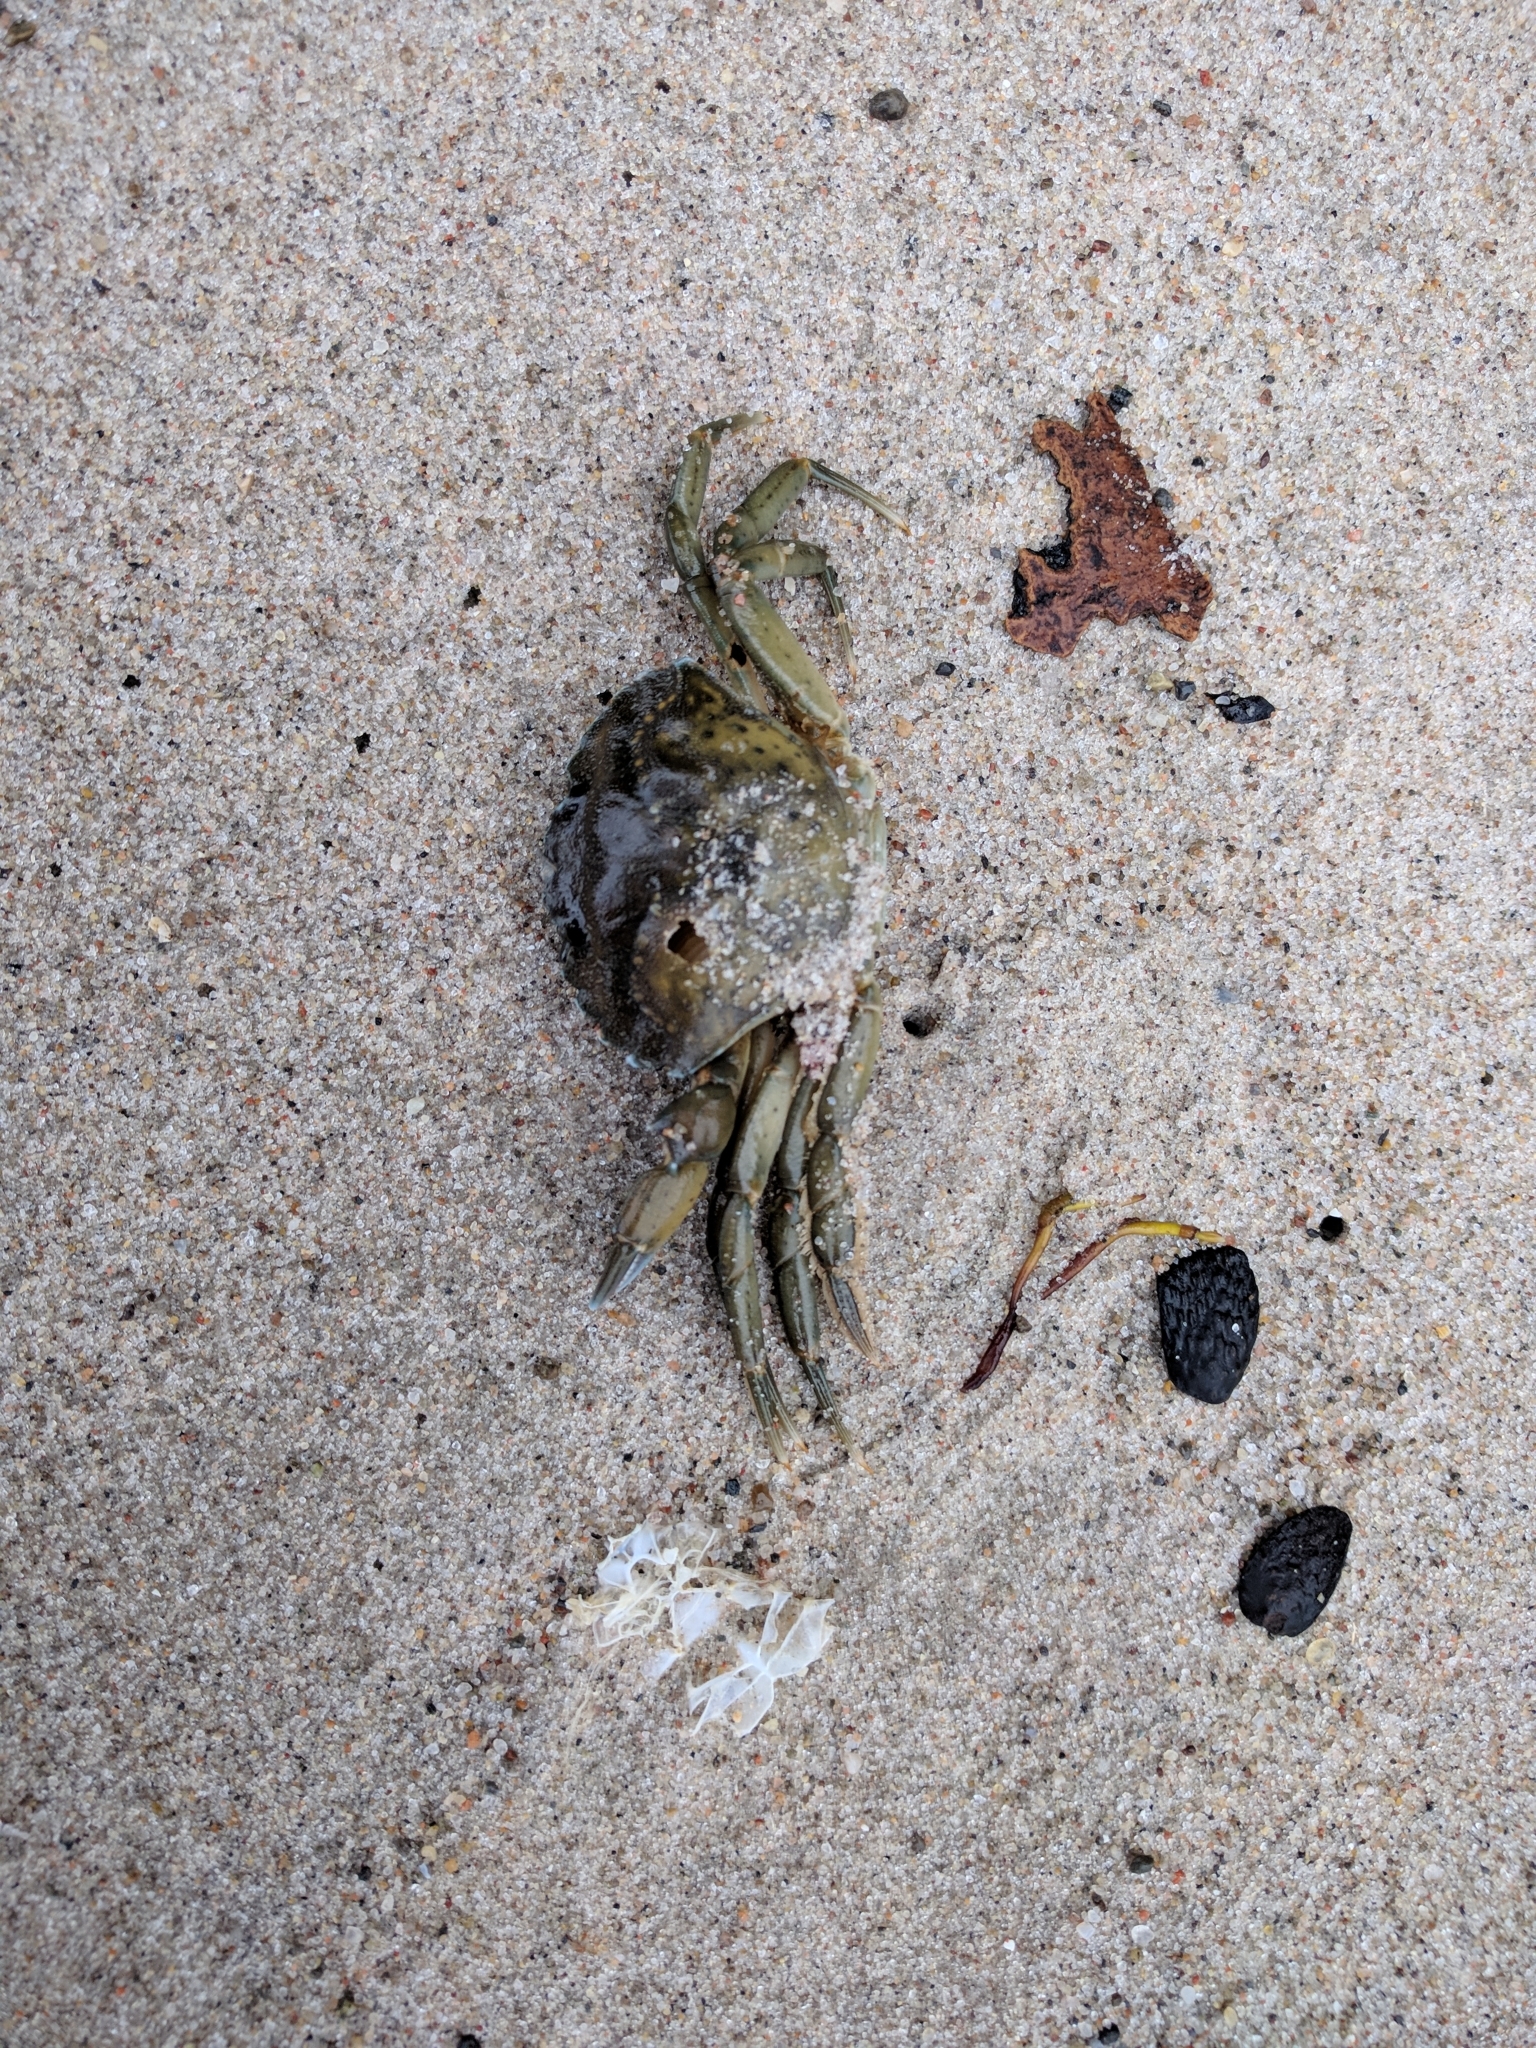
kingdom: Animalia
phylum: Arthropoda
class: Malacostraca
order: Decapoda
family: Carcinidae
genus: Carcinus
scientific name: Carcinus maenas
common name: European green crab
